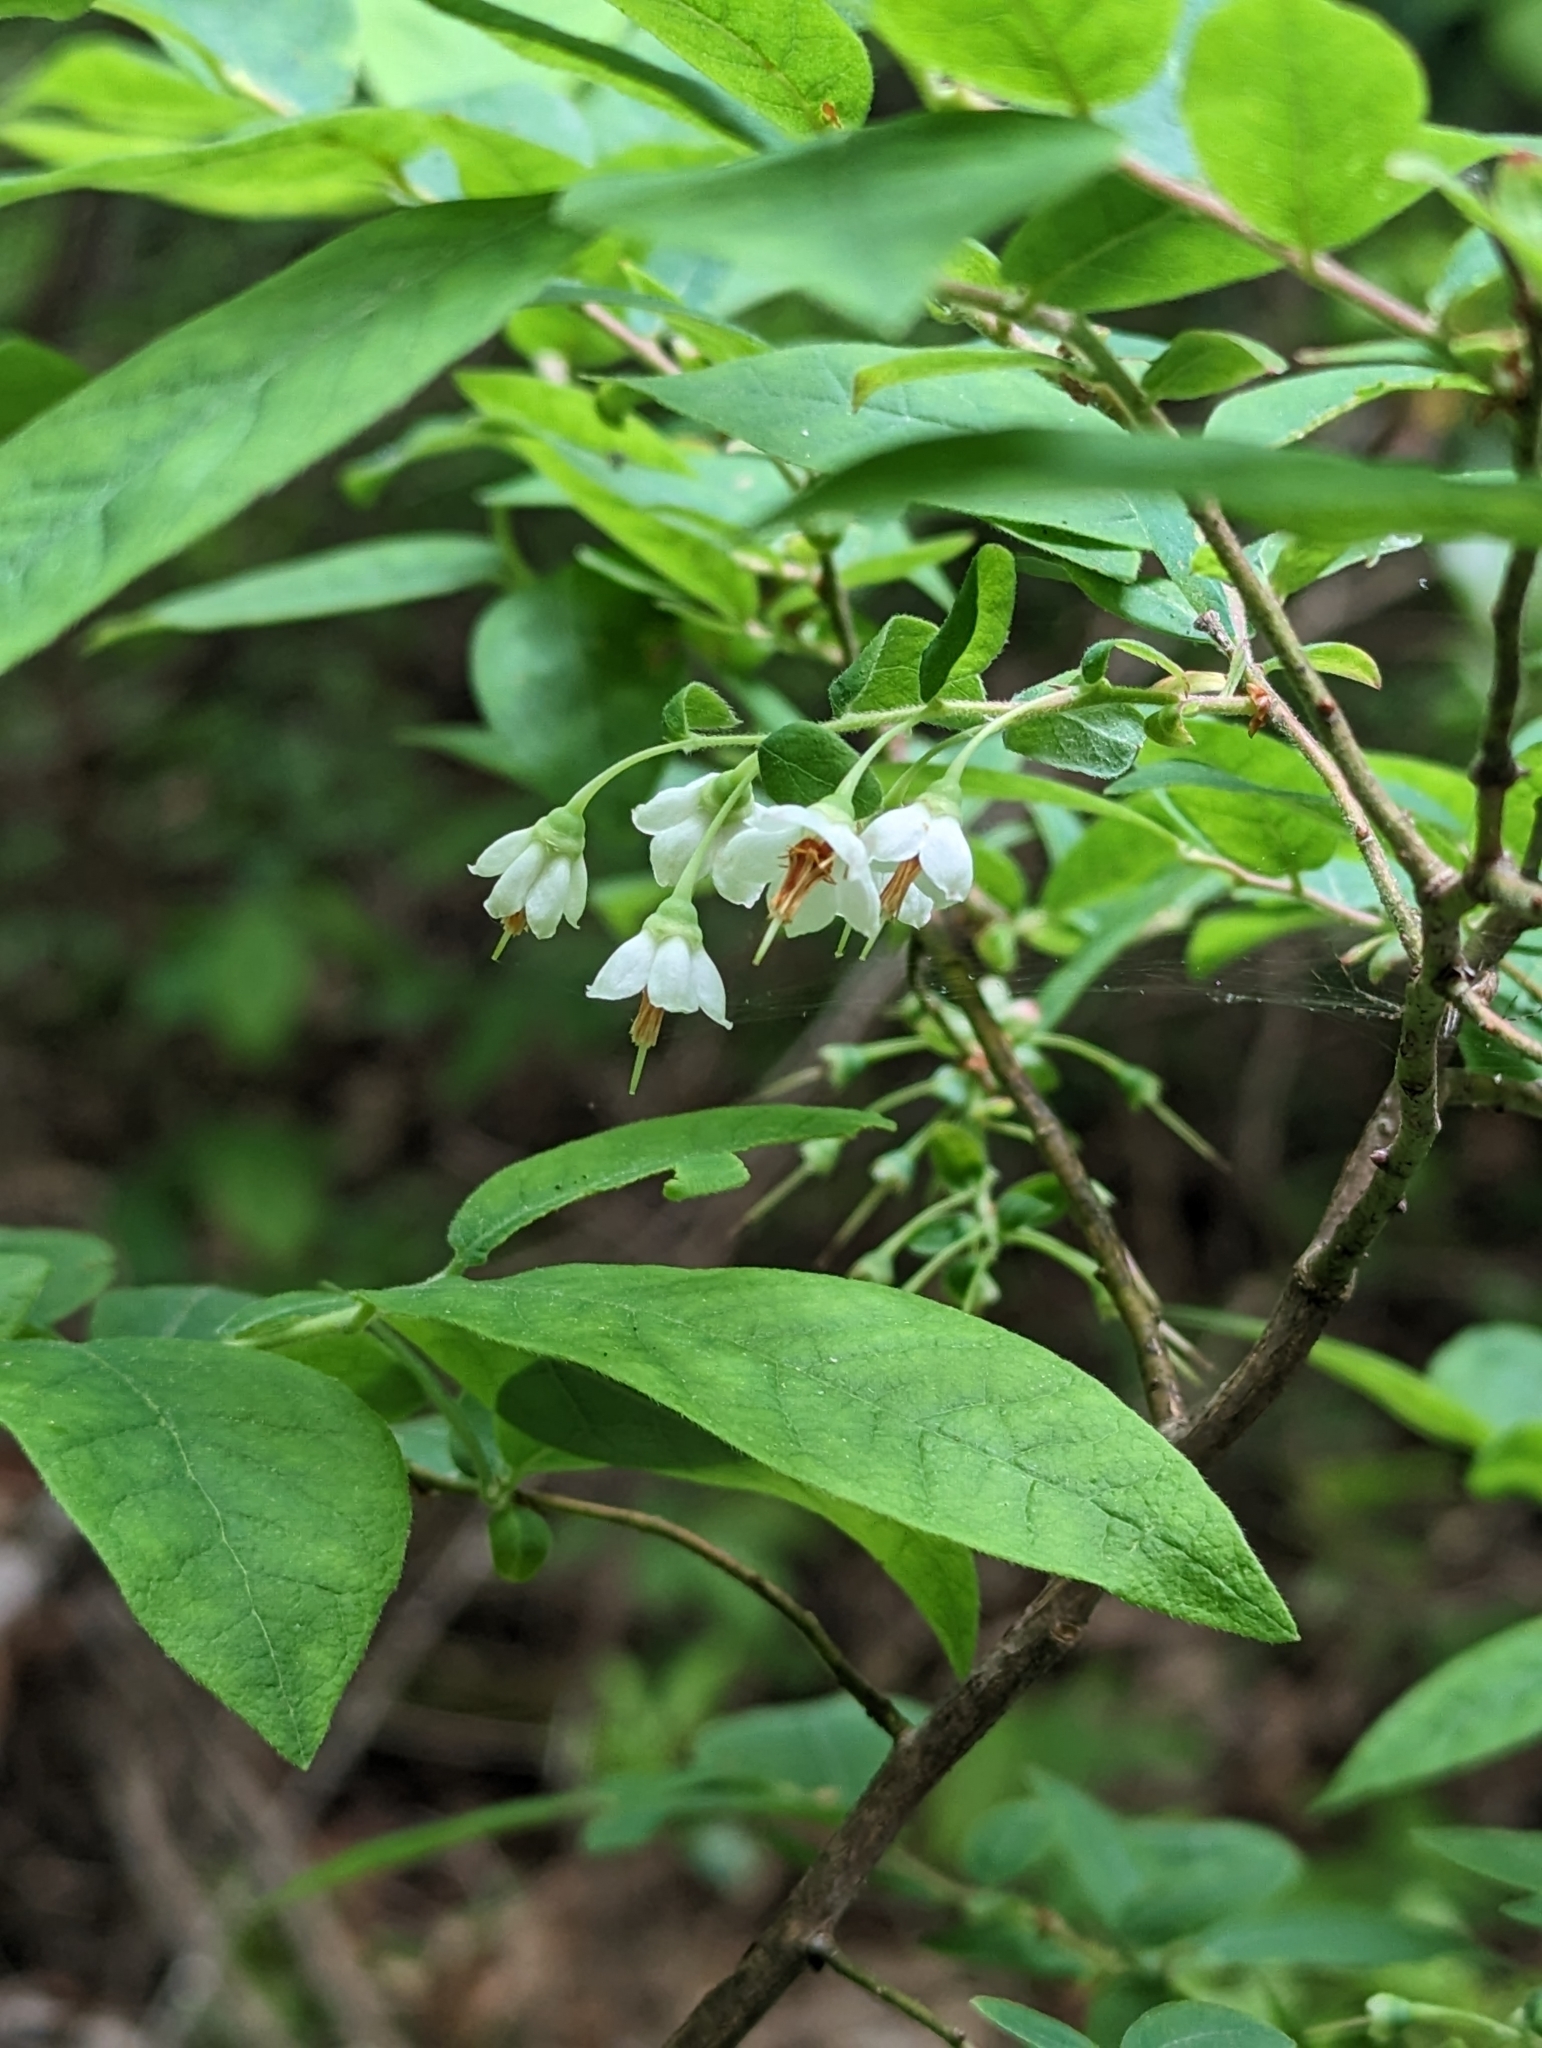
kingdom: Plantae
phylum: Tracheophyta
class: Magnoliopsida
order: Ericales
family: Ericaceae
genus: Vaccinium
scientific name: Vaccinium stamineum
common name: Deerberry
